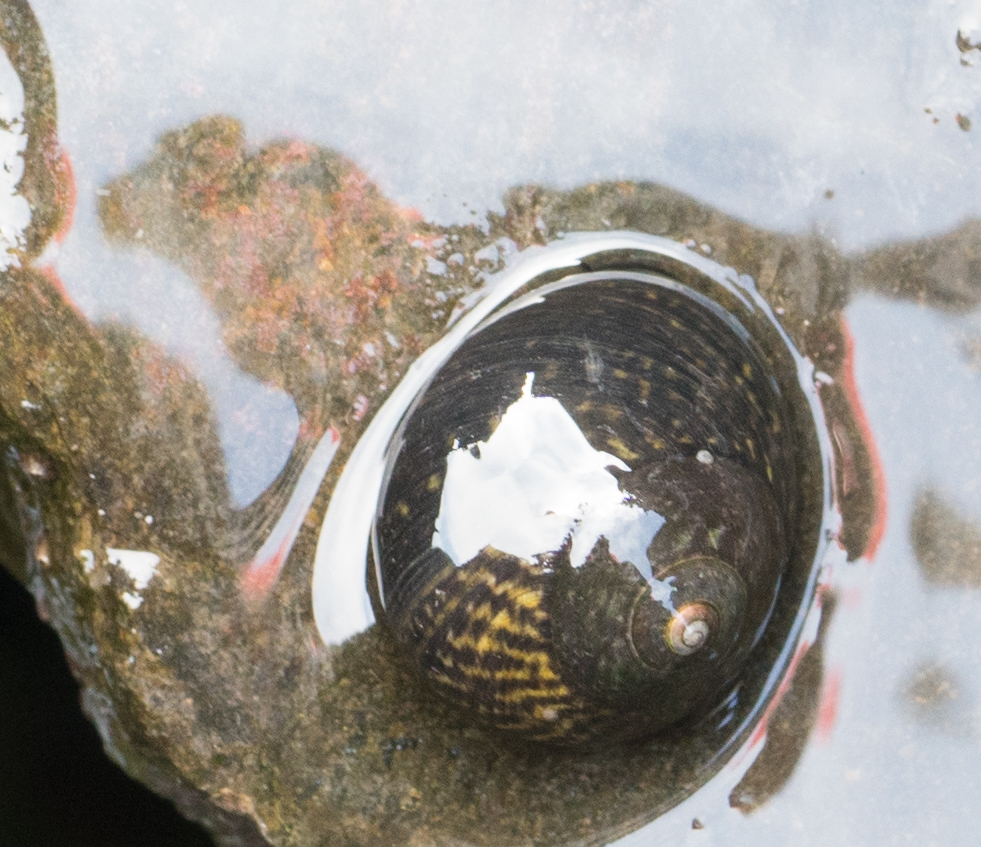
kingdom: Animalia
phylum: Mollusca
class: Gastropoda
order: Trochida
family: Tegulidae
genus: Tegula
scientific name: Tegula gallina
